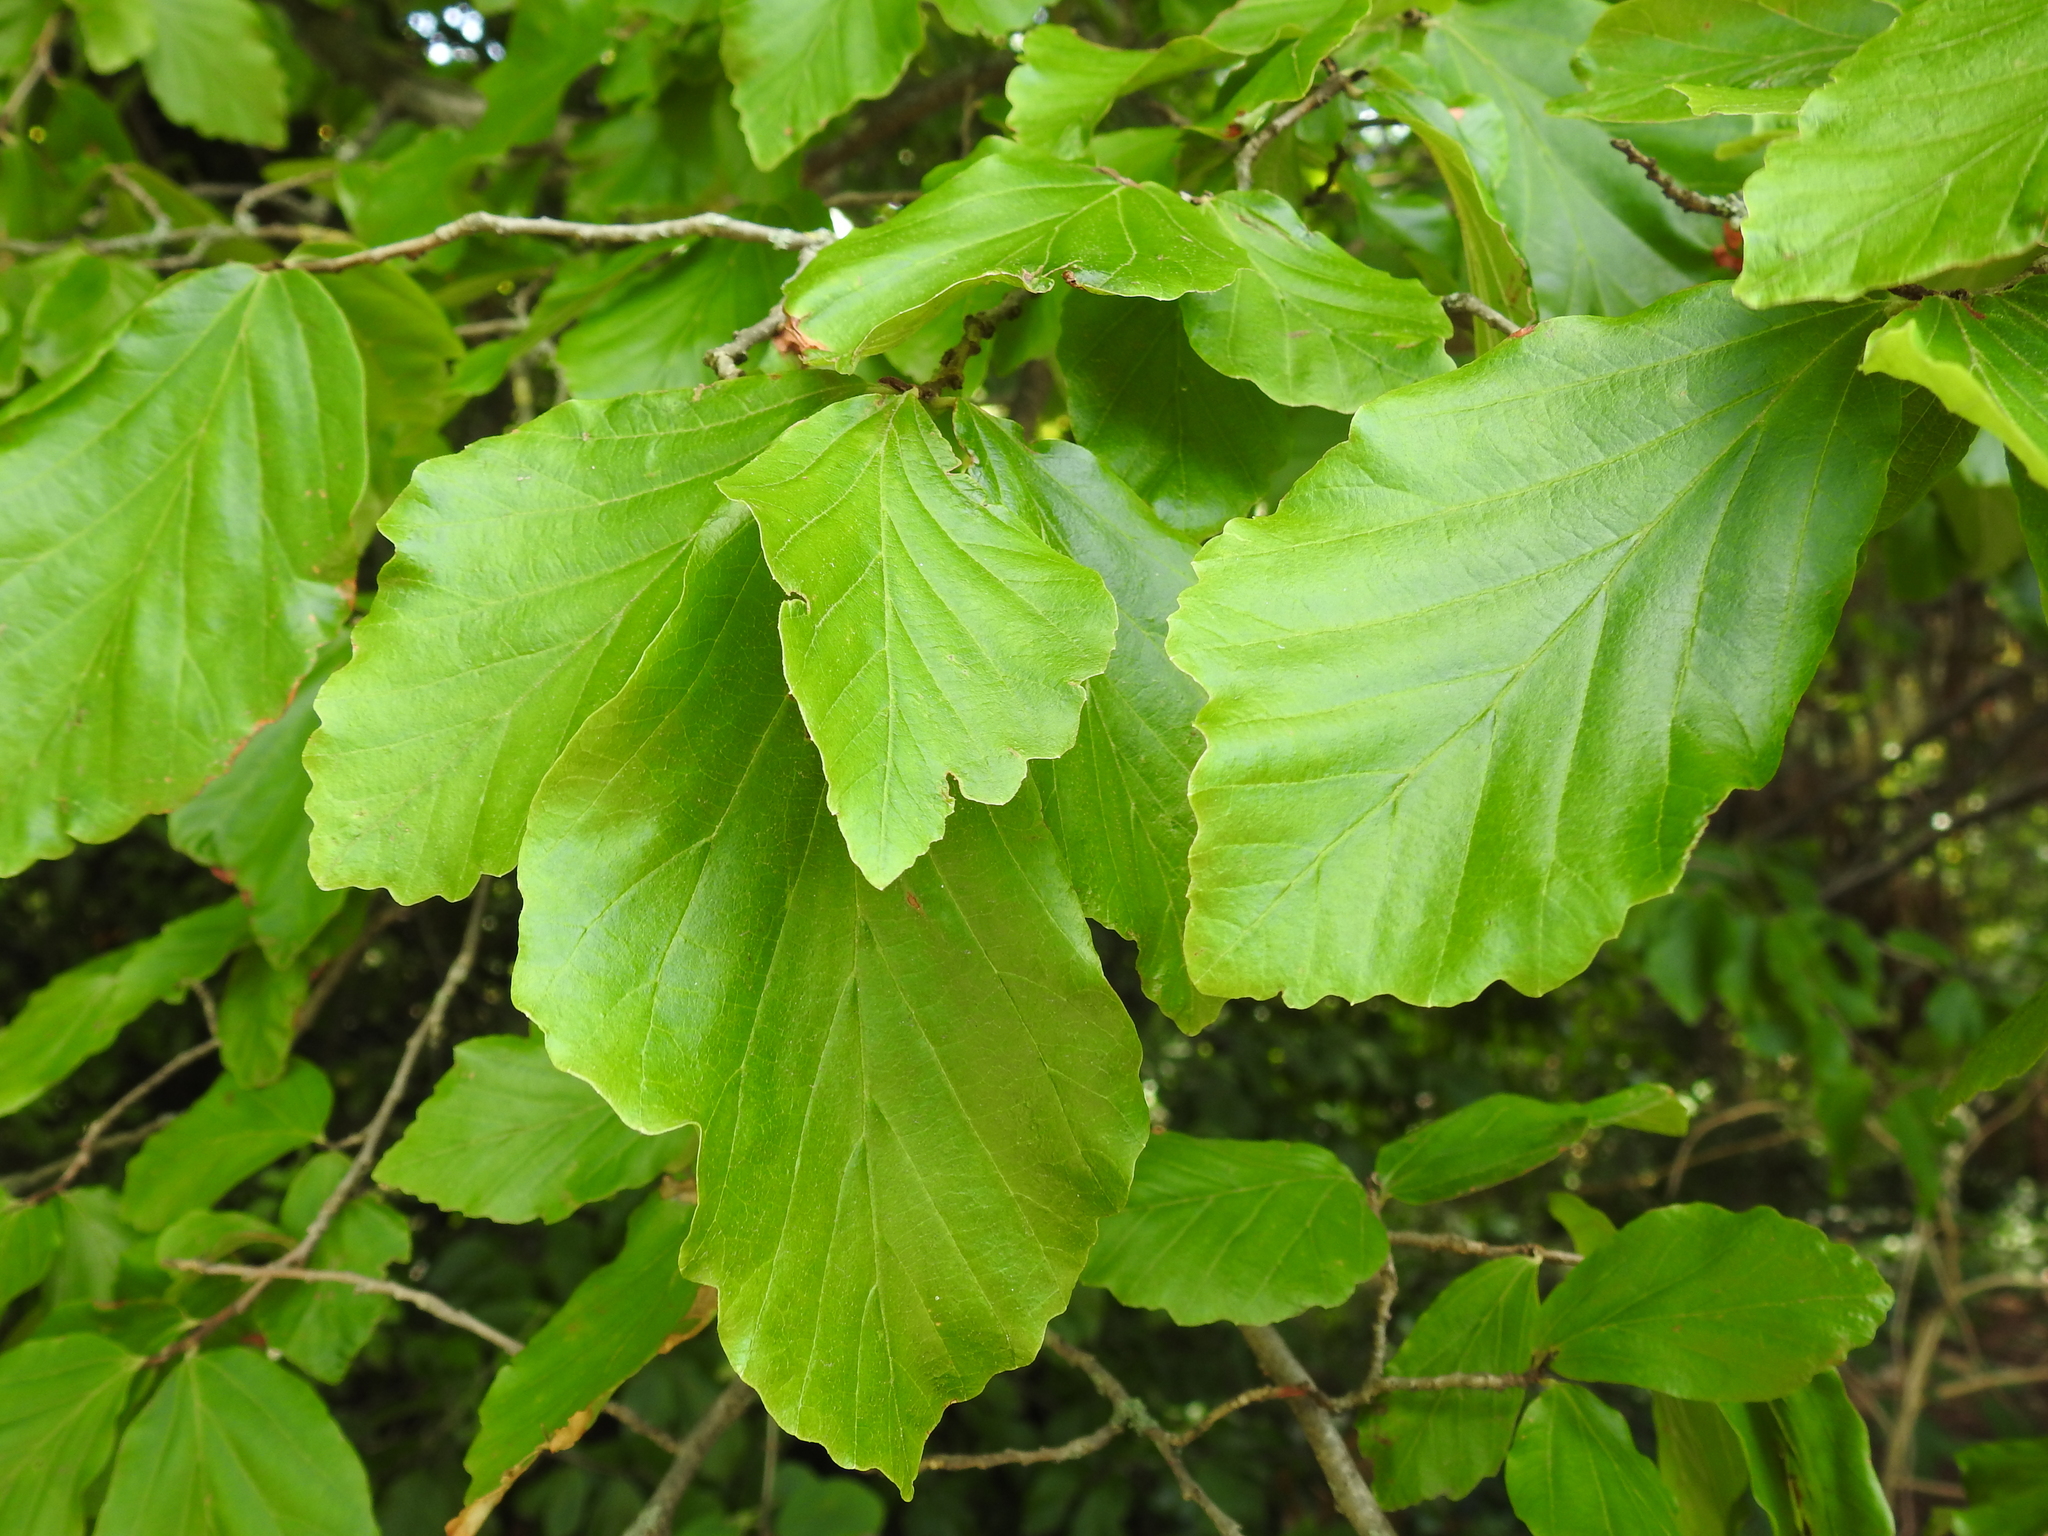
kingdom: Plantae
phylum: Tracheophyta
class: Magnoliopsida
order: Fagales
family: Fagaceae
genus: Fagus
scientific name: Fagus sylvatica
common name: Beech
